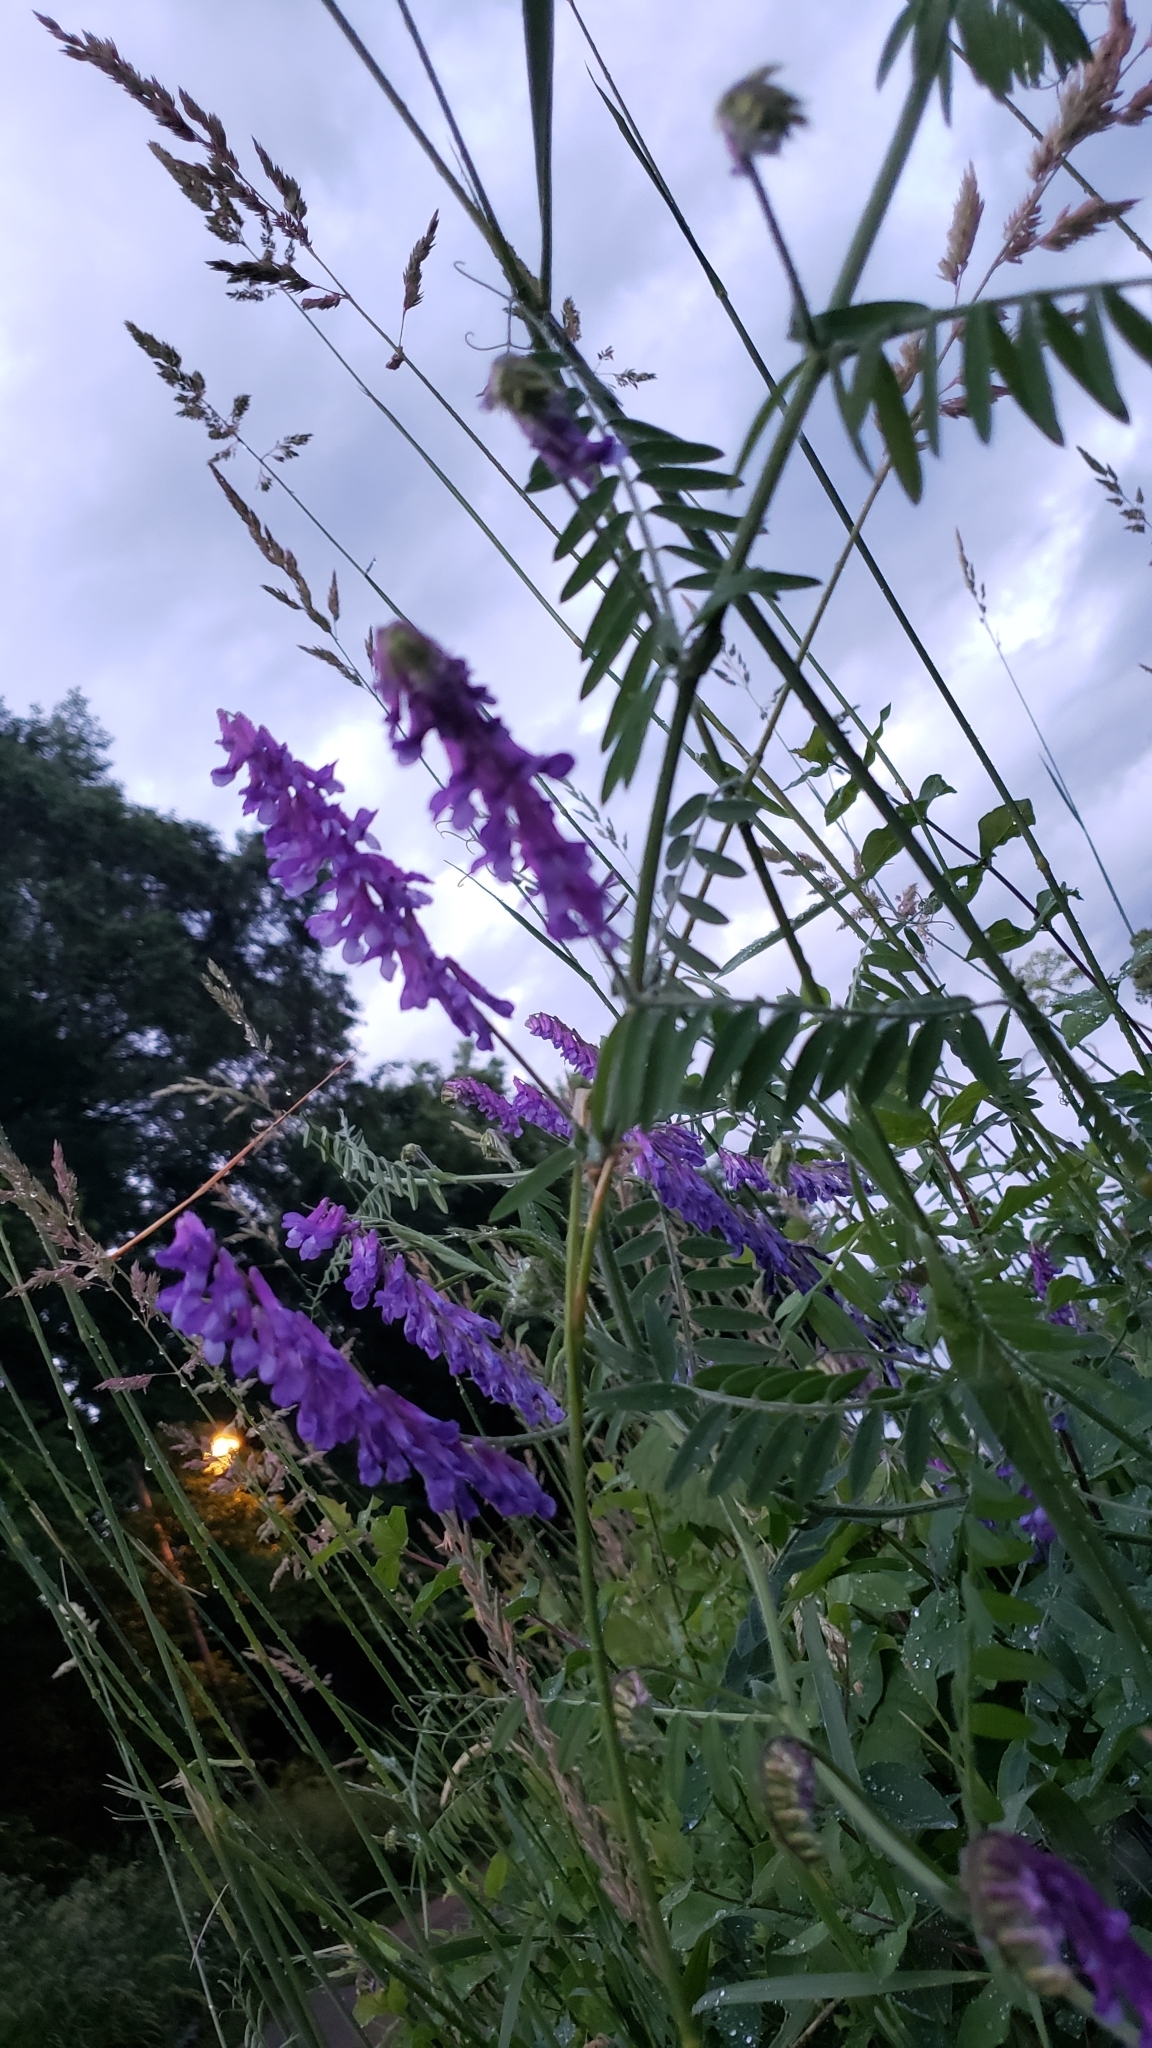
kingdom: Plantae
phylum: Tracheophyta
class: Magnoliopsida
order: Fabales
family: Fabaceae
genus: Vicia
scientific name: Vicia villosa
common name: Fodder vetch
